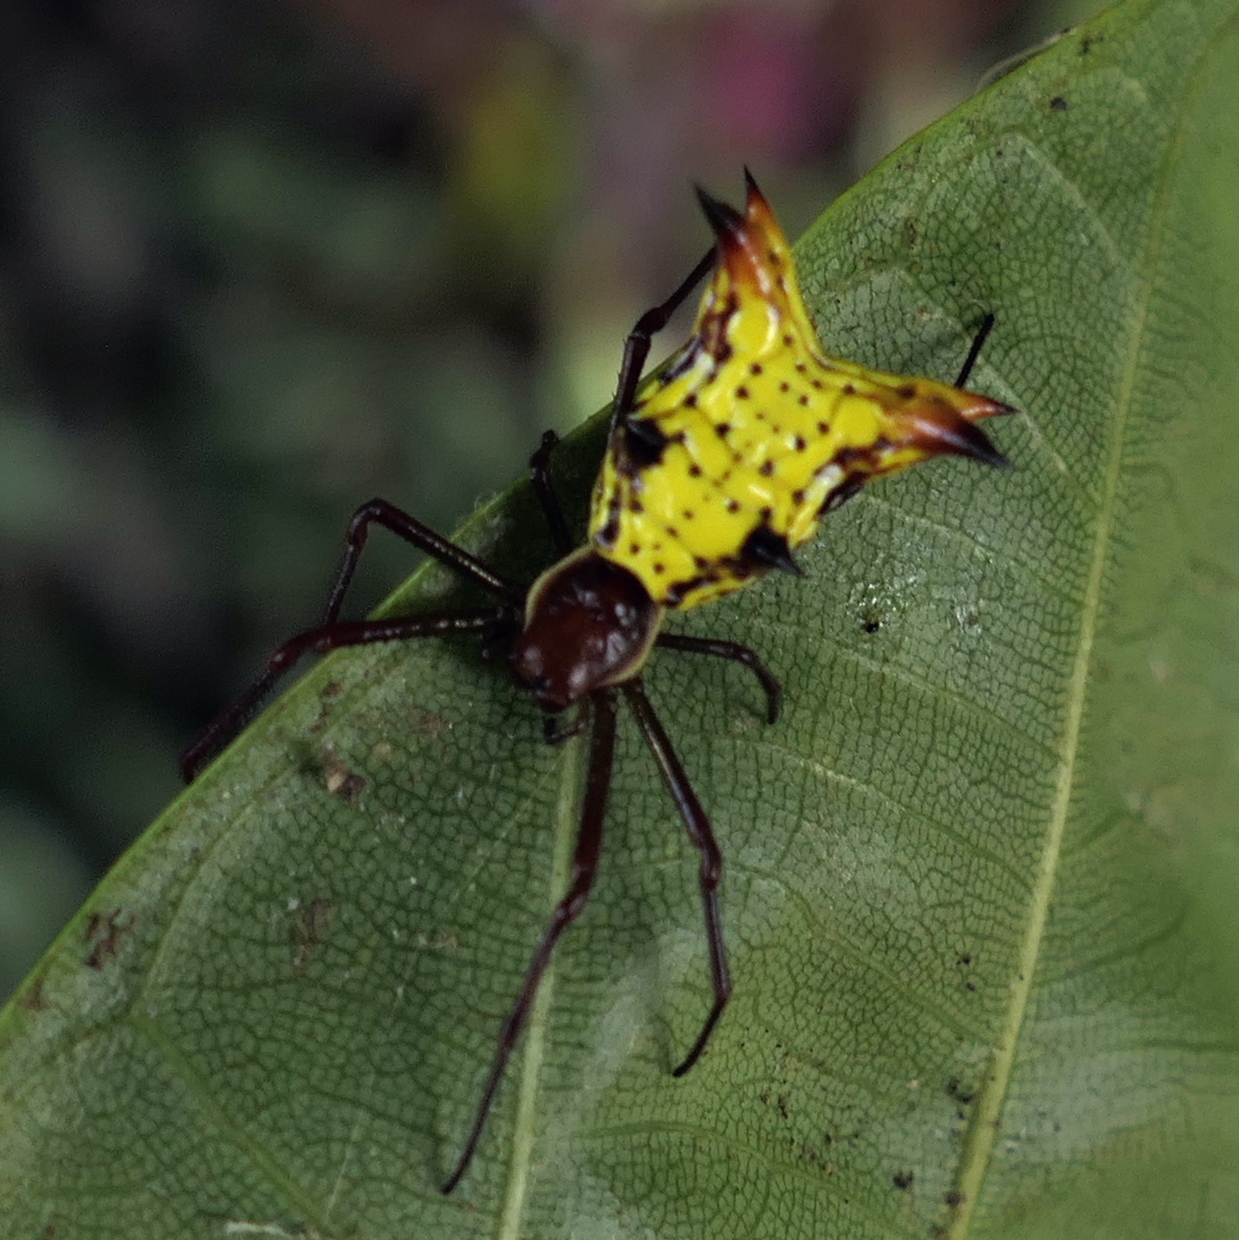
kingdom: Animalia
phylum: Arthropoda
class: Arachnida
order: Araneae
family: Araneidae
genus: Micrathena
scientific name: Micrathena fissispina
